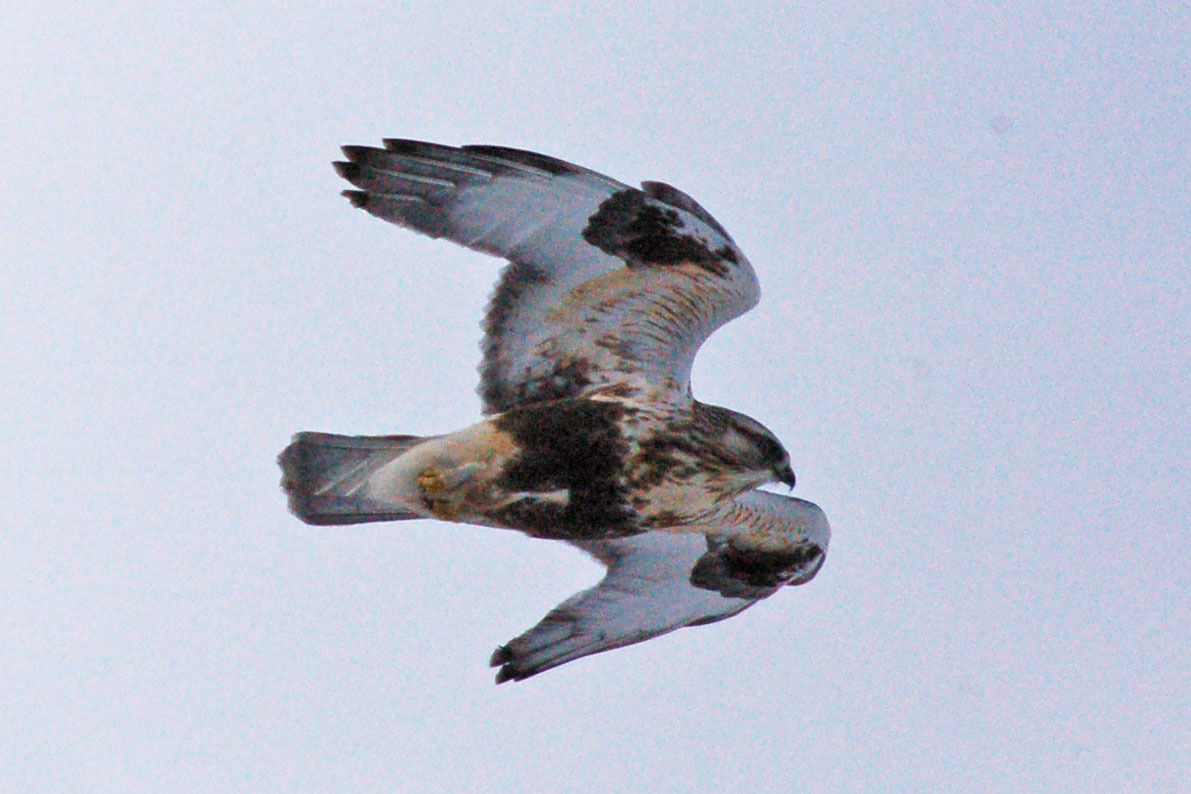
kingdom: Animalia
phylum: Chordata
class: Aves
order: Accipitriformes
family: Accipitridae
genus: Buteo
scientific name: Buteo lagopus
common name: Rough-legged buzzard
